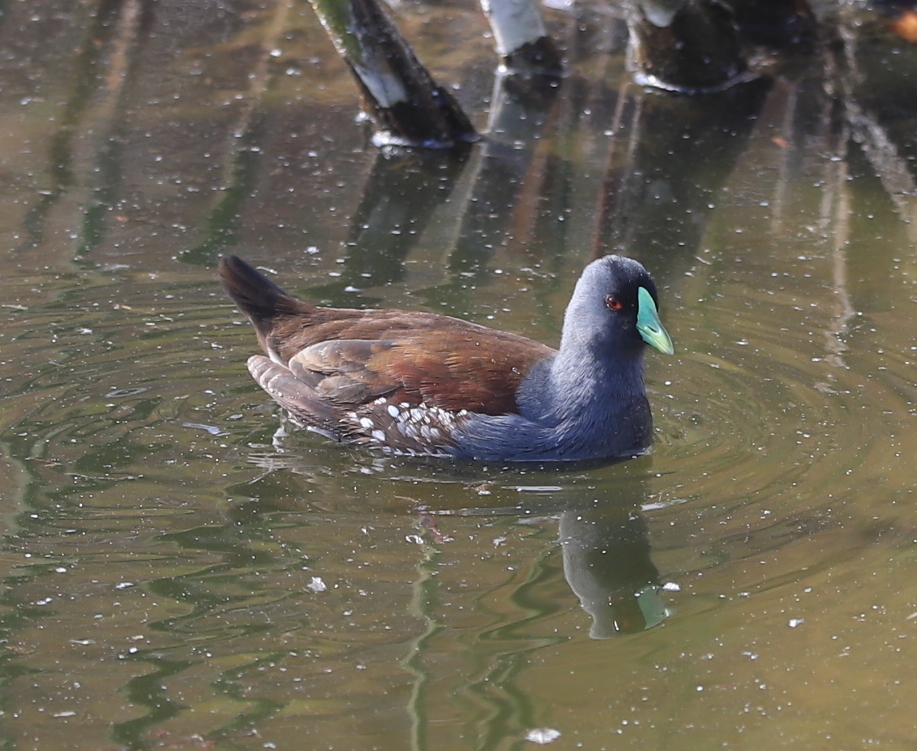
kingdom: Animalia
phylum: Chordata
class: Aves
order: Gruiformes
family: Rallidae
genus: Gallinula
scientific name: Gallinula melanops
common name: Spot-flanked gallinule
